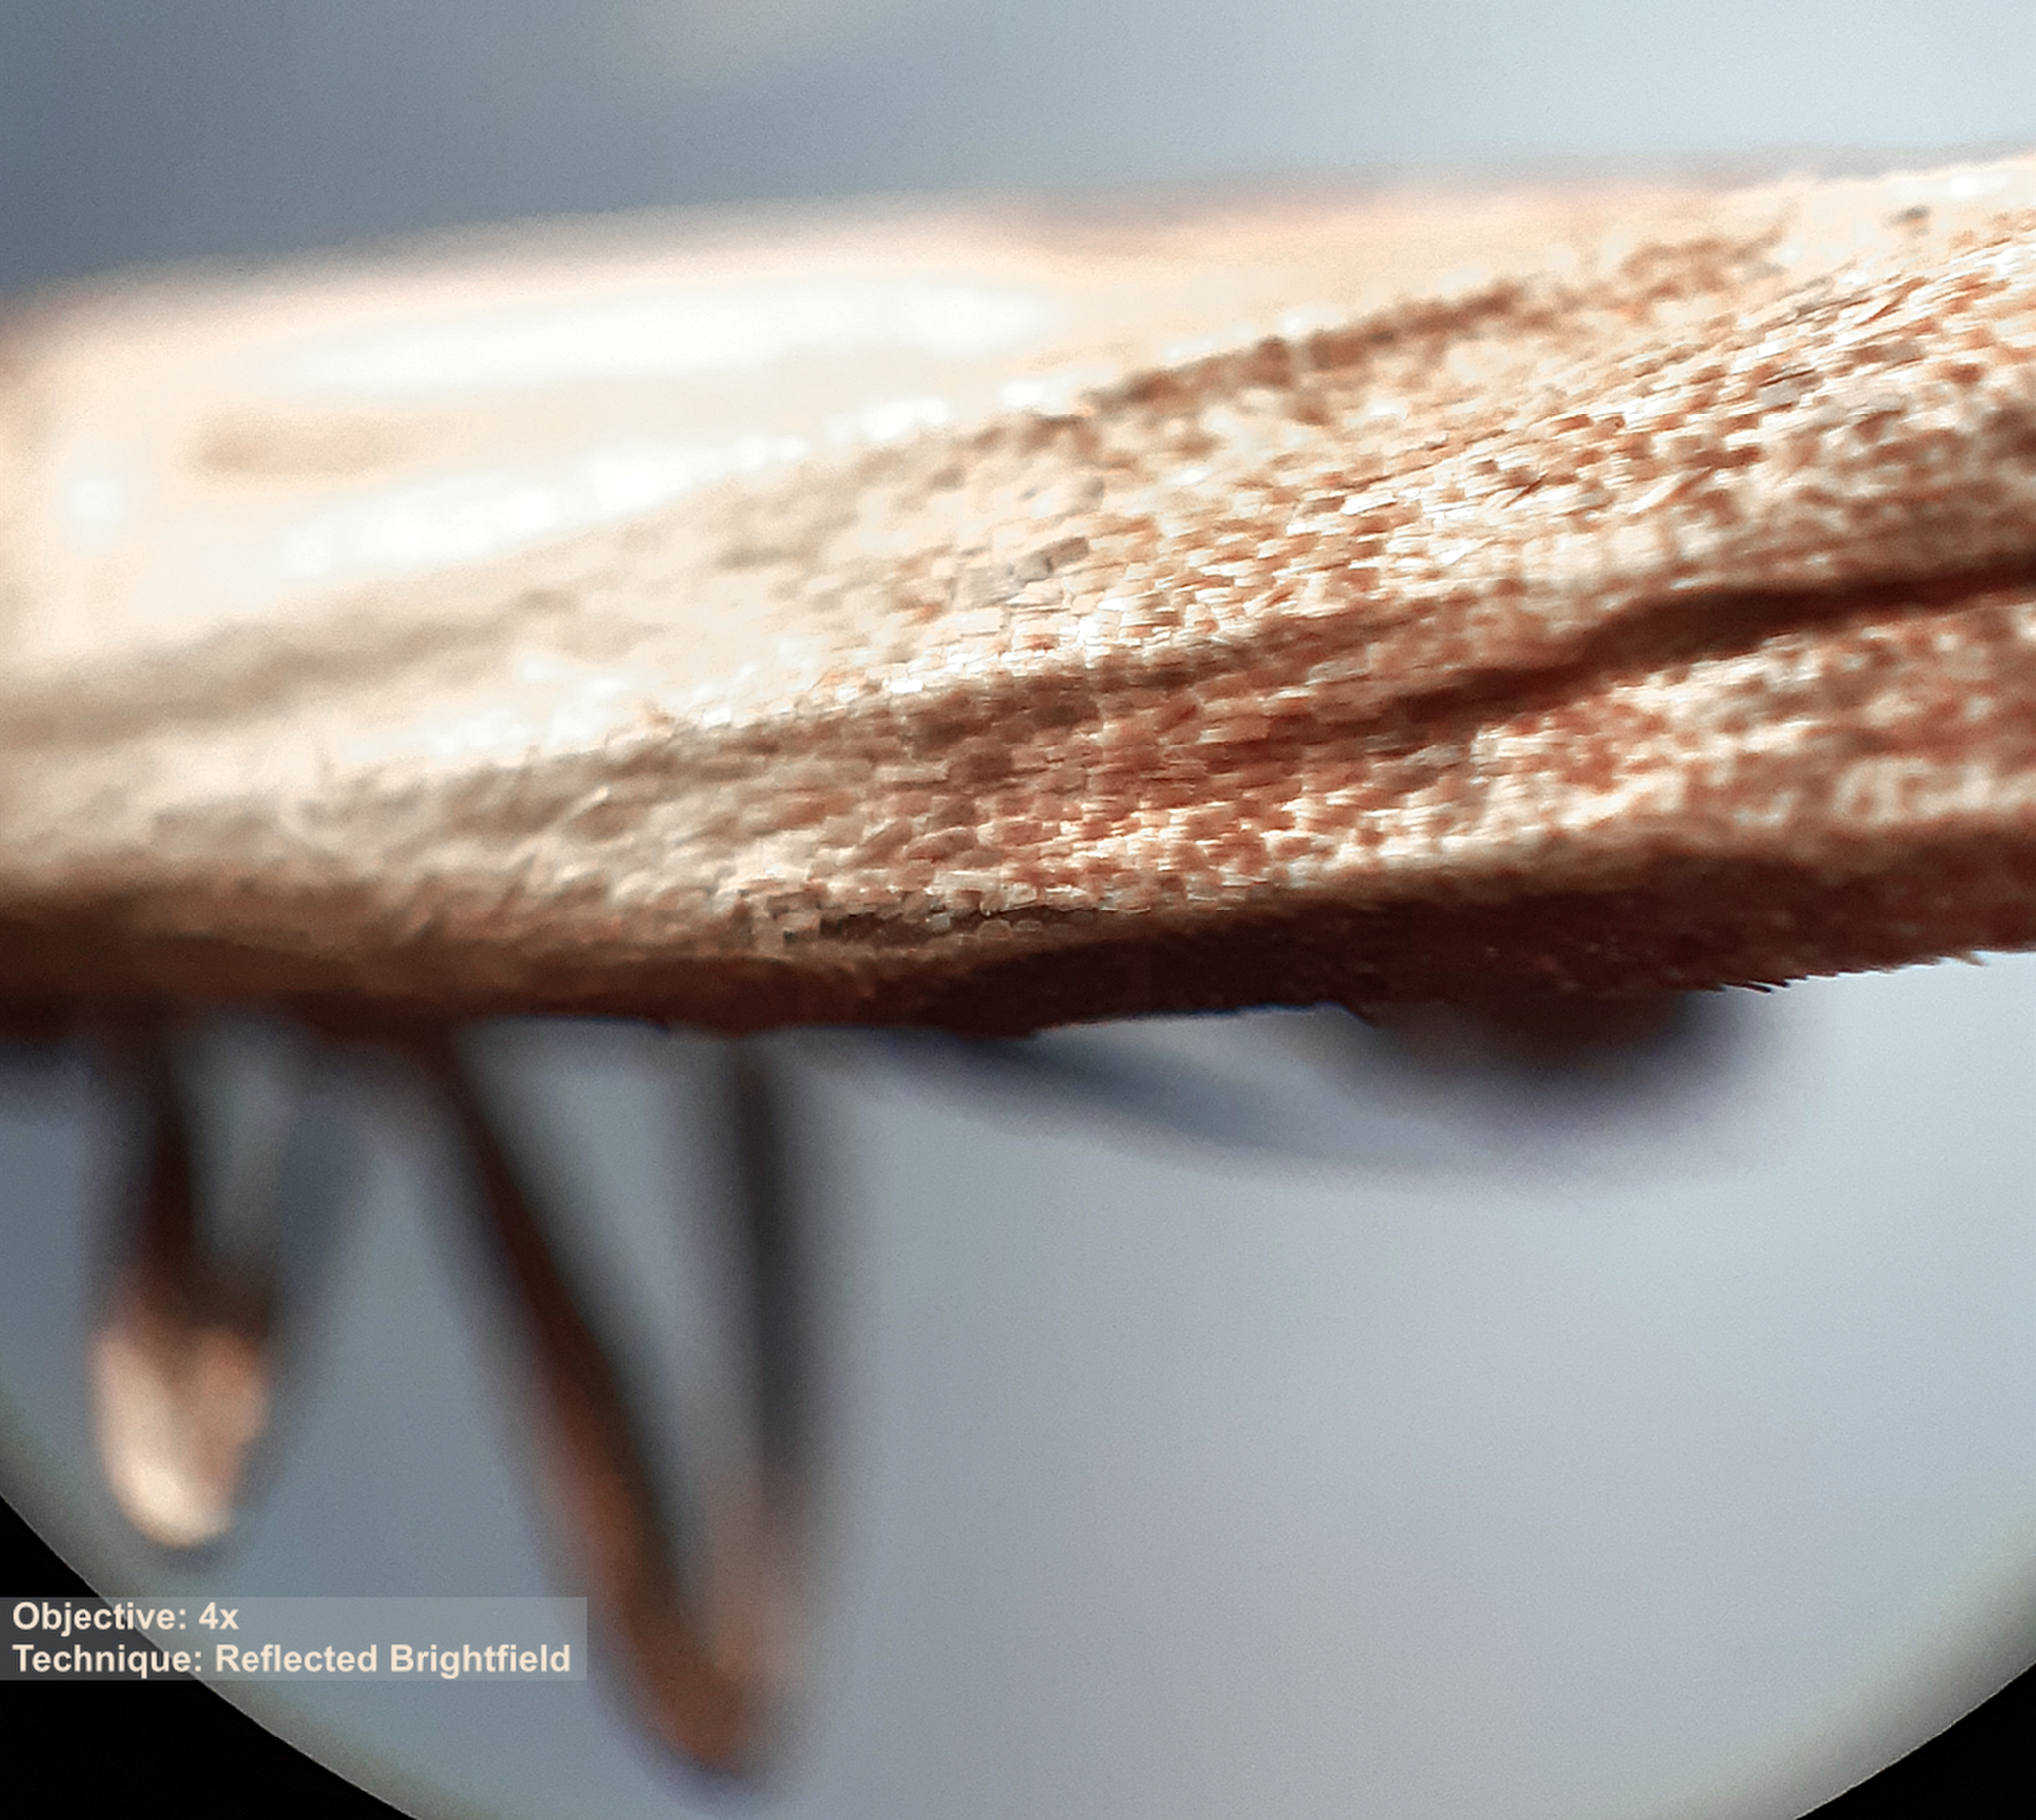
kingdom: Animalia
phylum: Arthropoda
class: Insecta
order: Lepidoptera
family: Pyralidae
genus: Plodia
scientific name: Plodia interpunctella
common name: Indian meal moth
